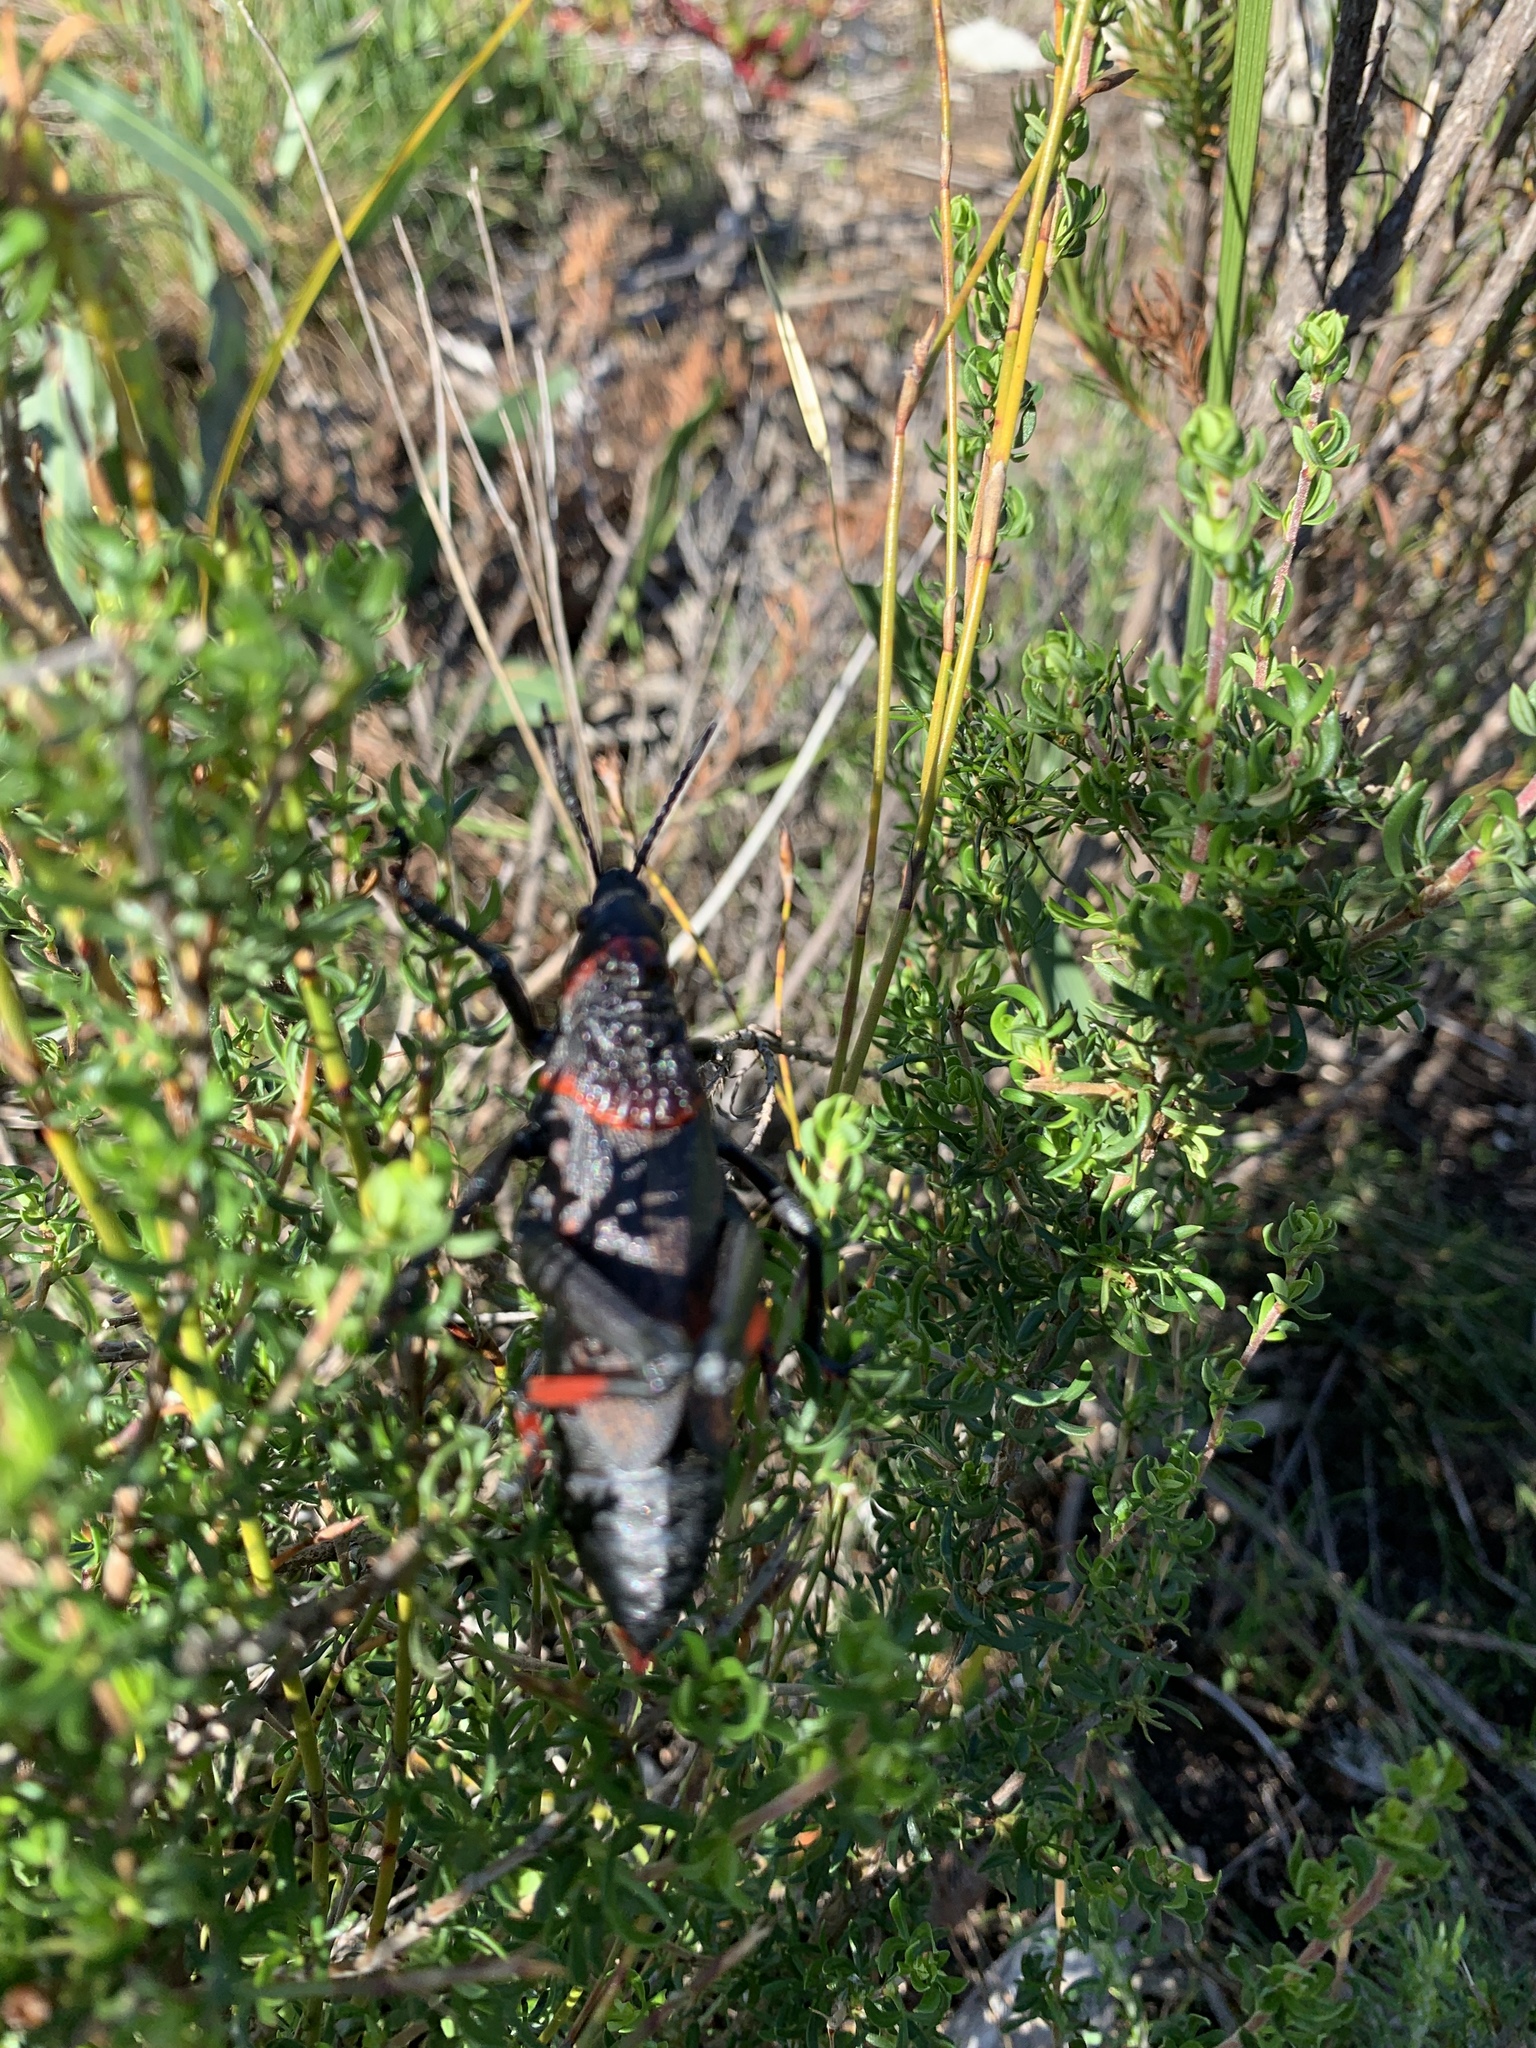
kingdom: Animalia
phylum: Arthropoda
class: Insecta
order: Orthoptera
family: Pyrgomorphidae
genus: Dictyophorus
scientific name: Dictyophorus spumans
